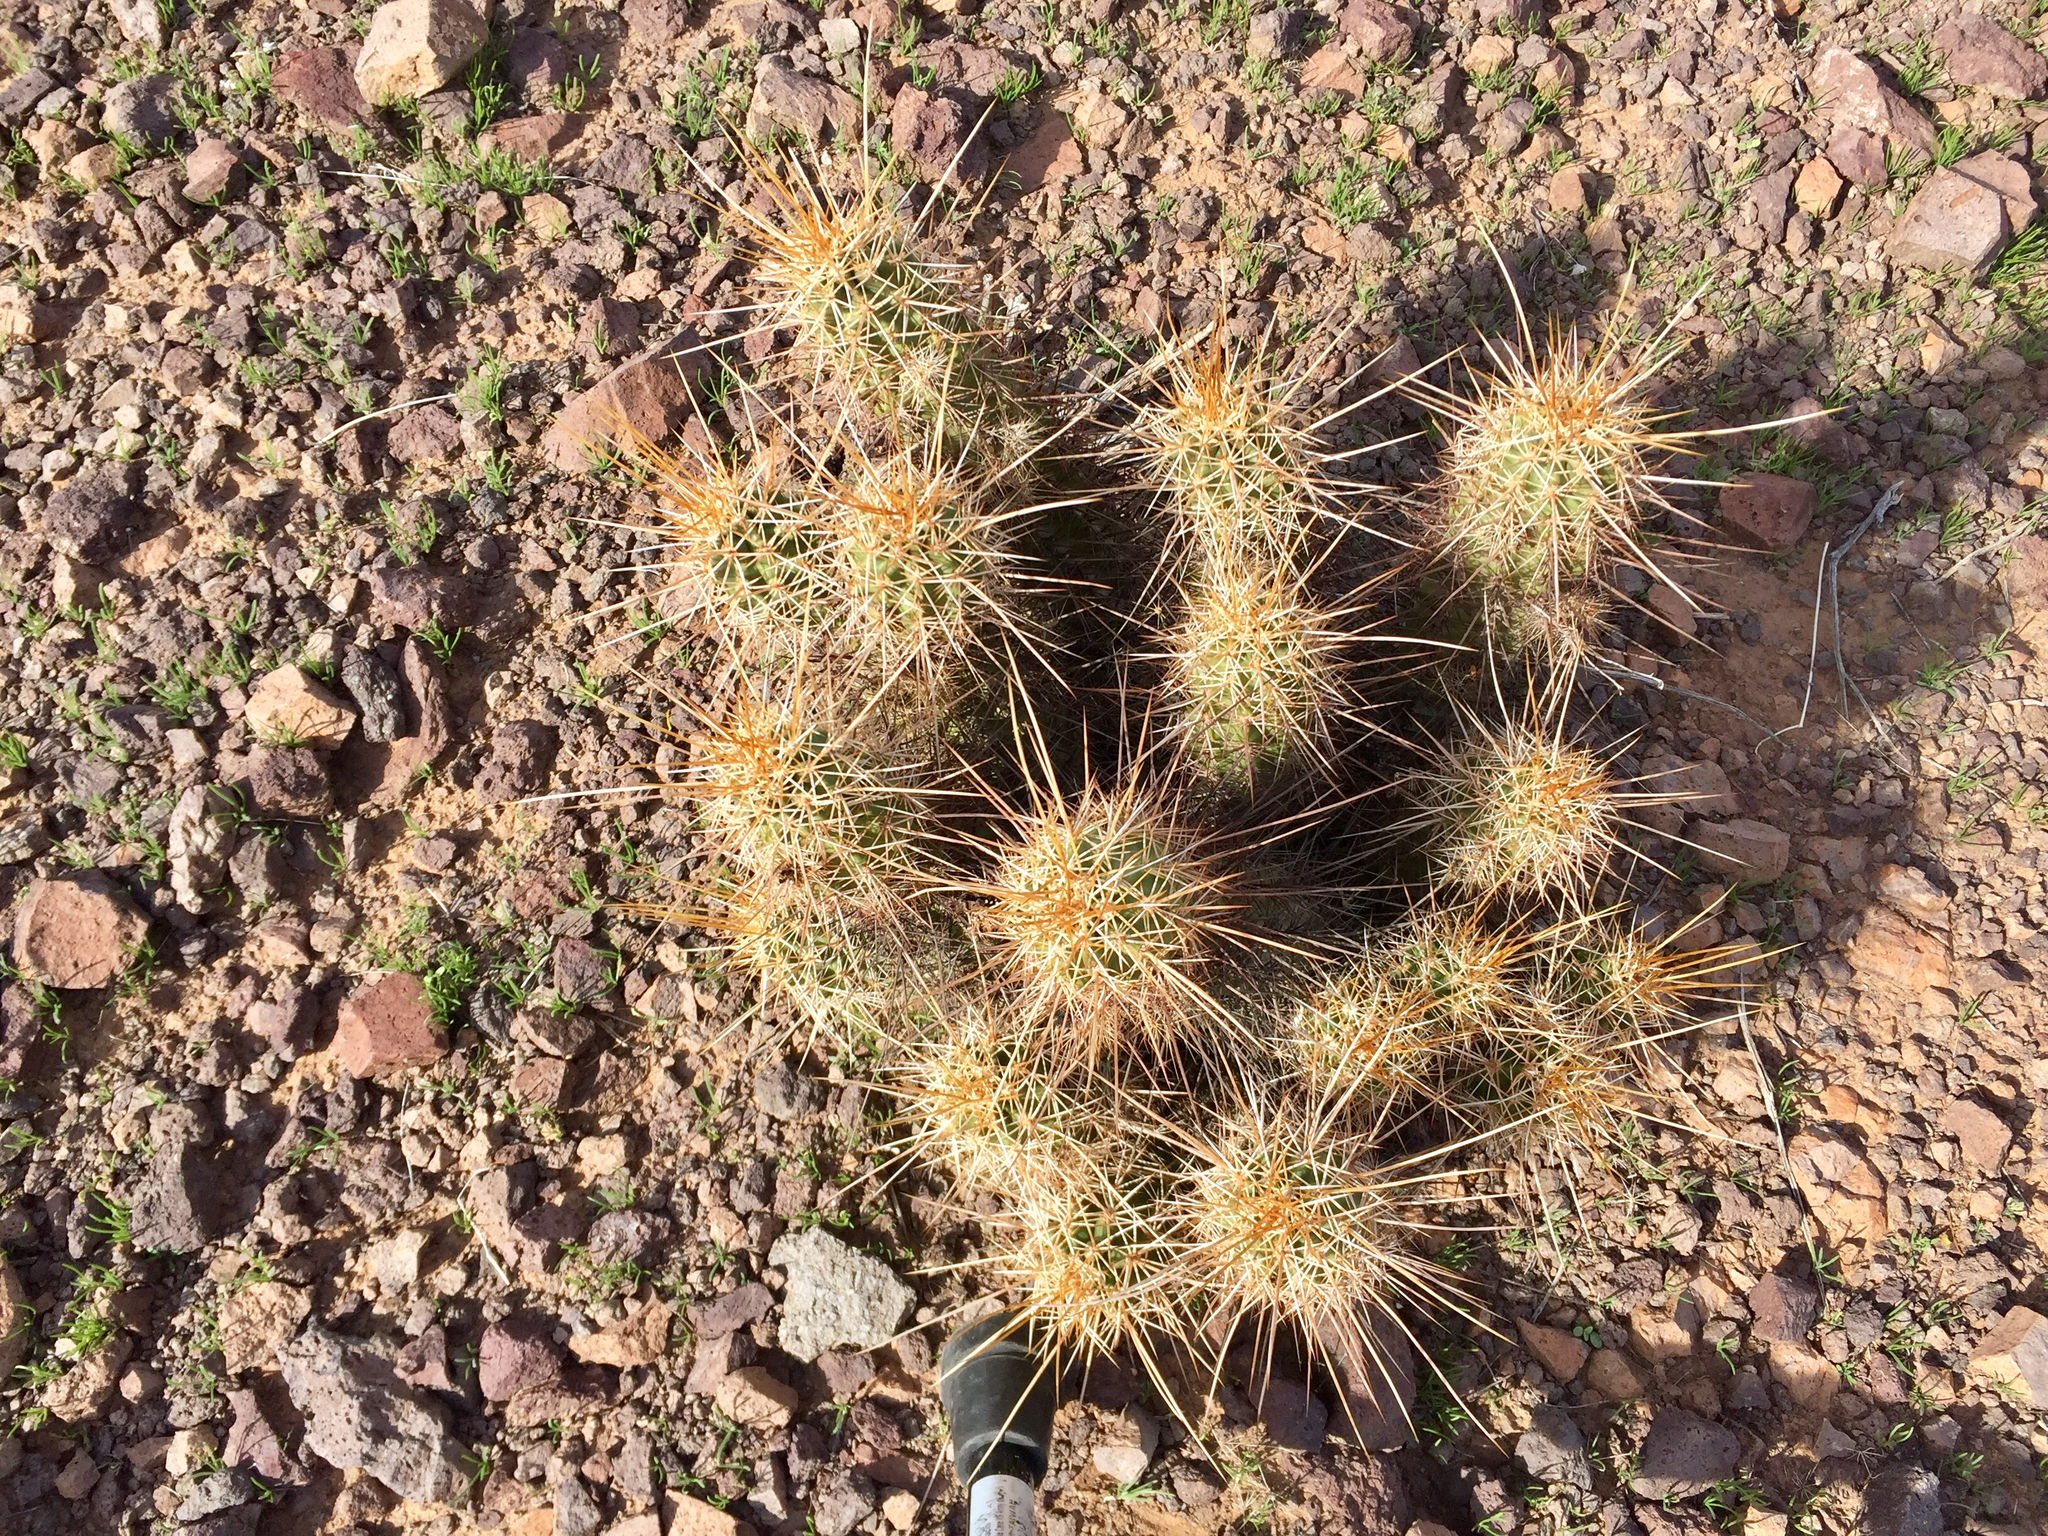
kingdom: Plantae
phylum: Tracheophyta
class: Magnoliopsida
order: Caryophyllales
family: Cactaceae
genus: Echinocereus
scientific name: Echinocereus engelmannii
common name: Engelmann's hedgehog cactus
